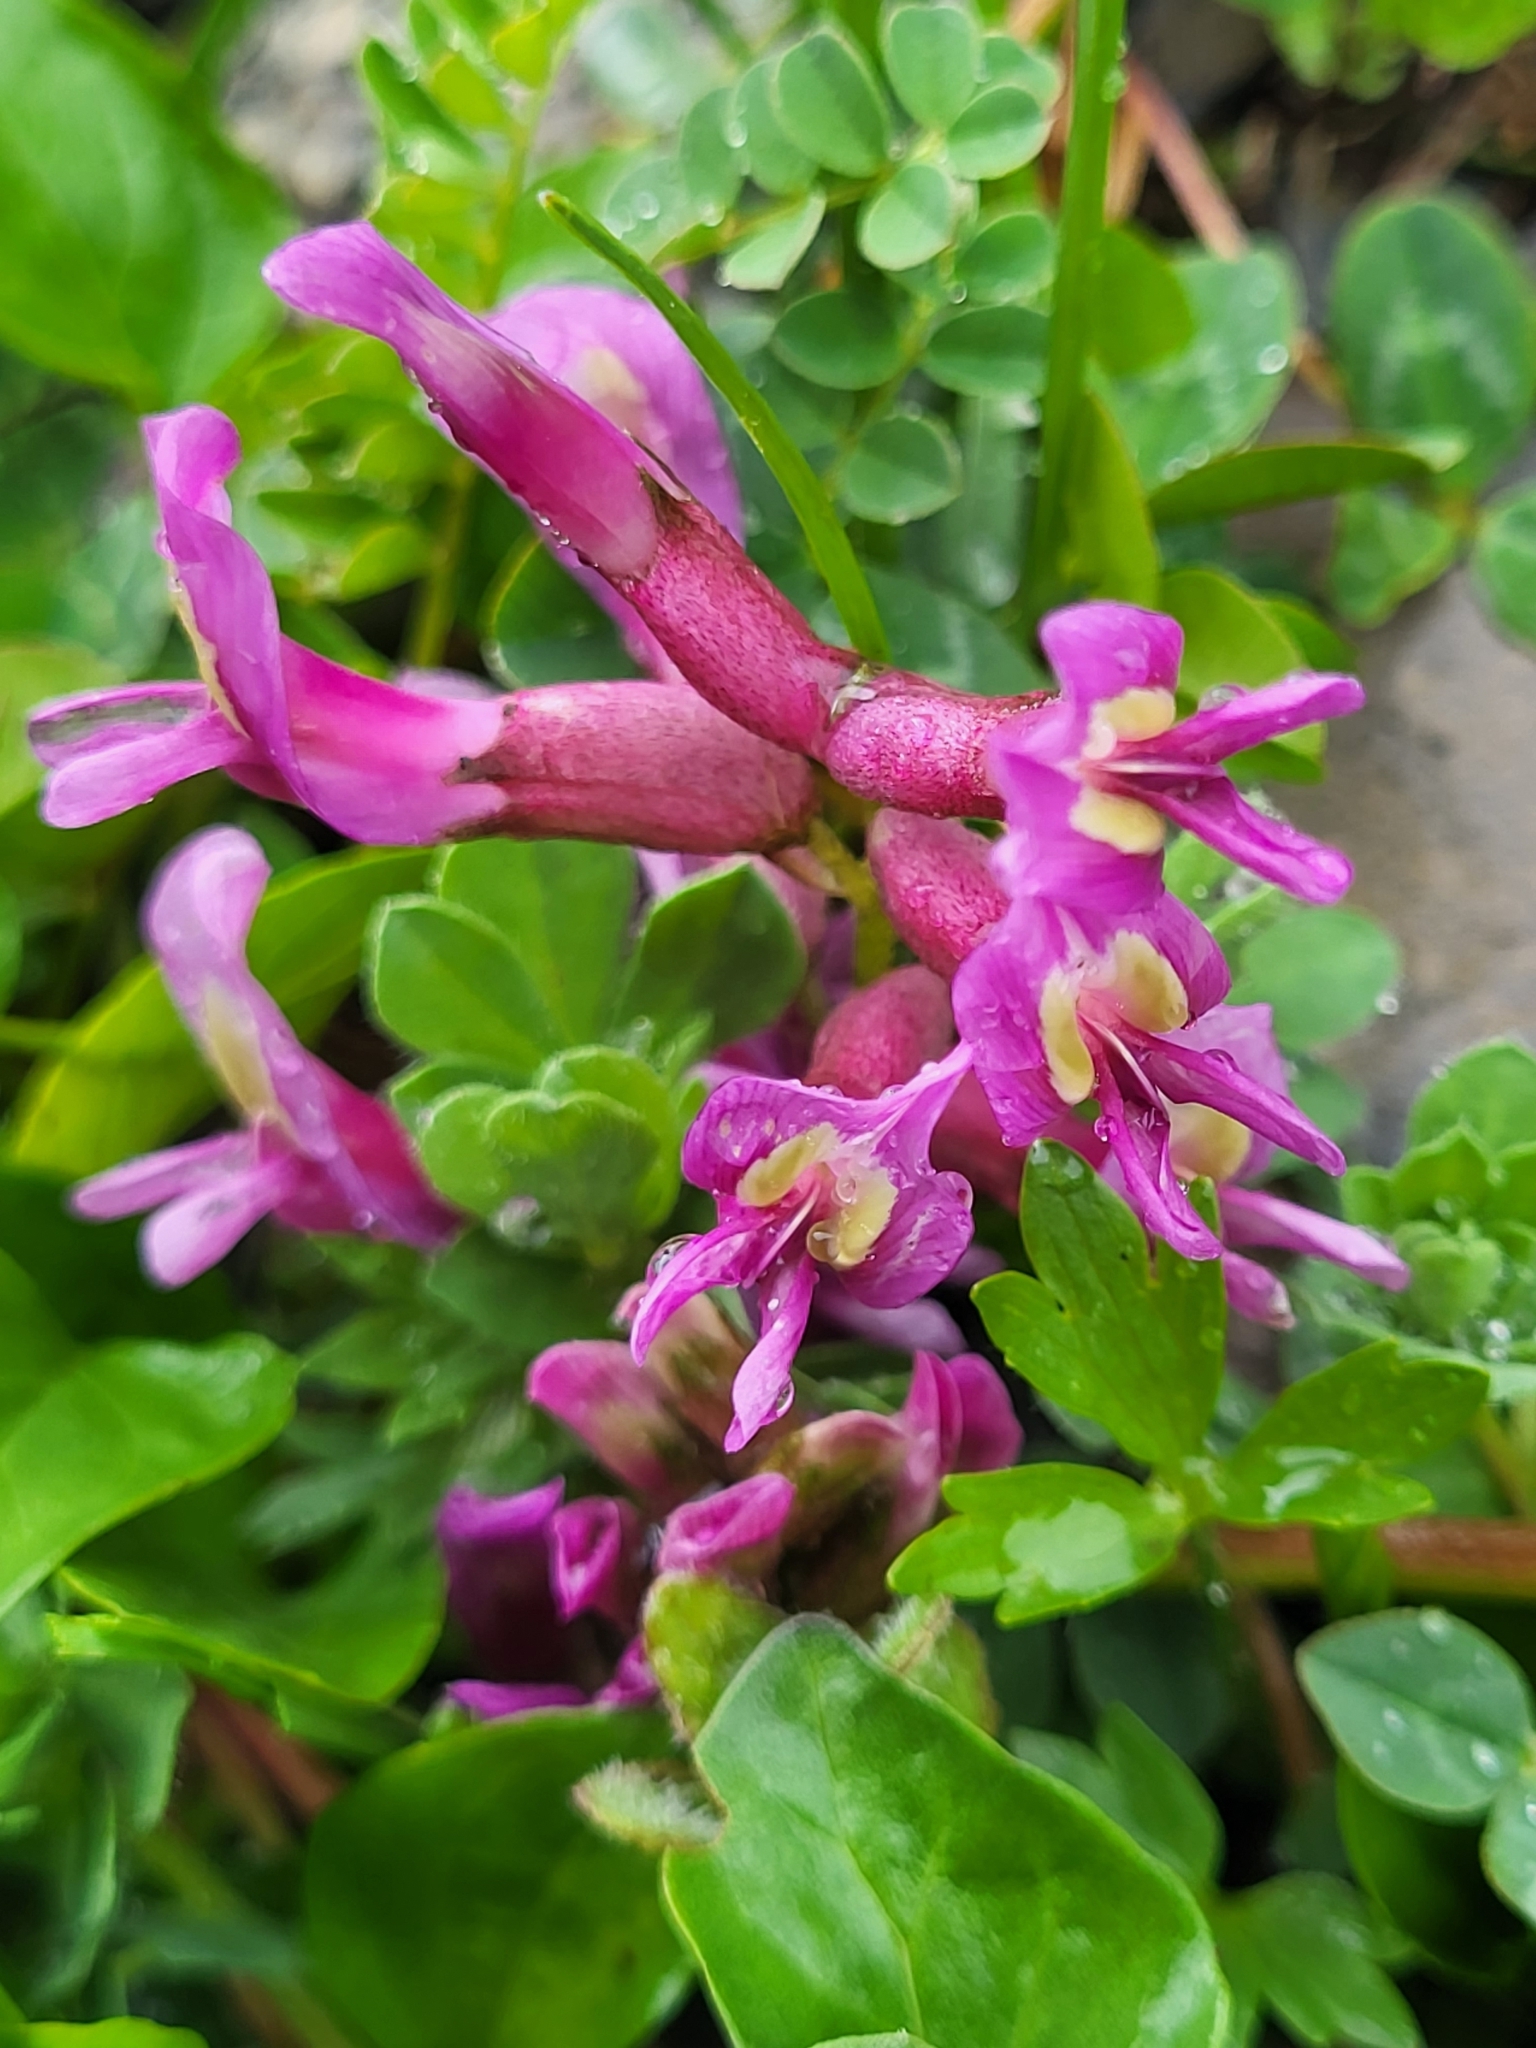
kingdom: Plantae
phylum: Tracheophyta
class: Magnoliopsida
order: Fabales
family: Fabaceae
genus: Astragalus
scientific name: Astragalus cyri
